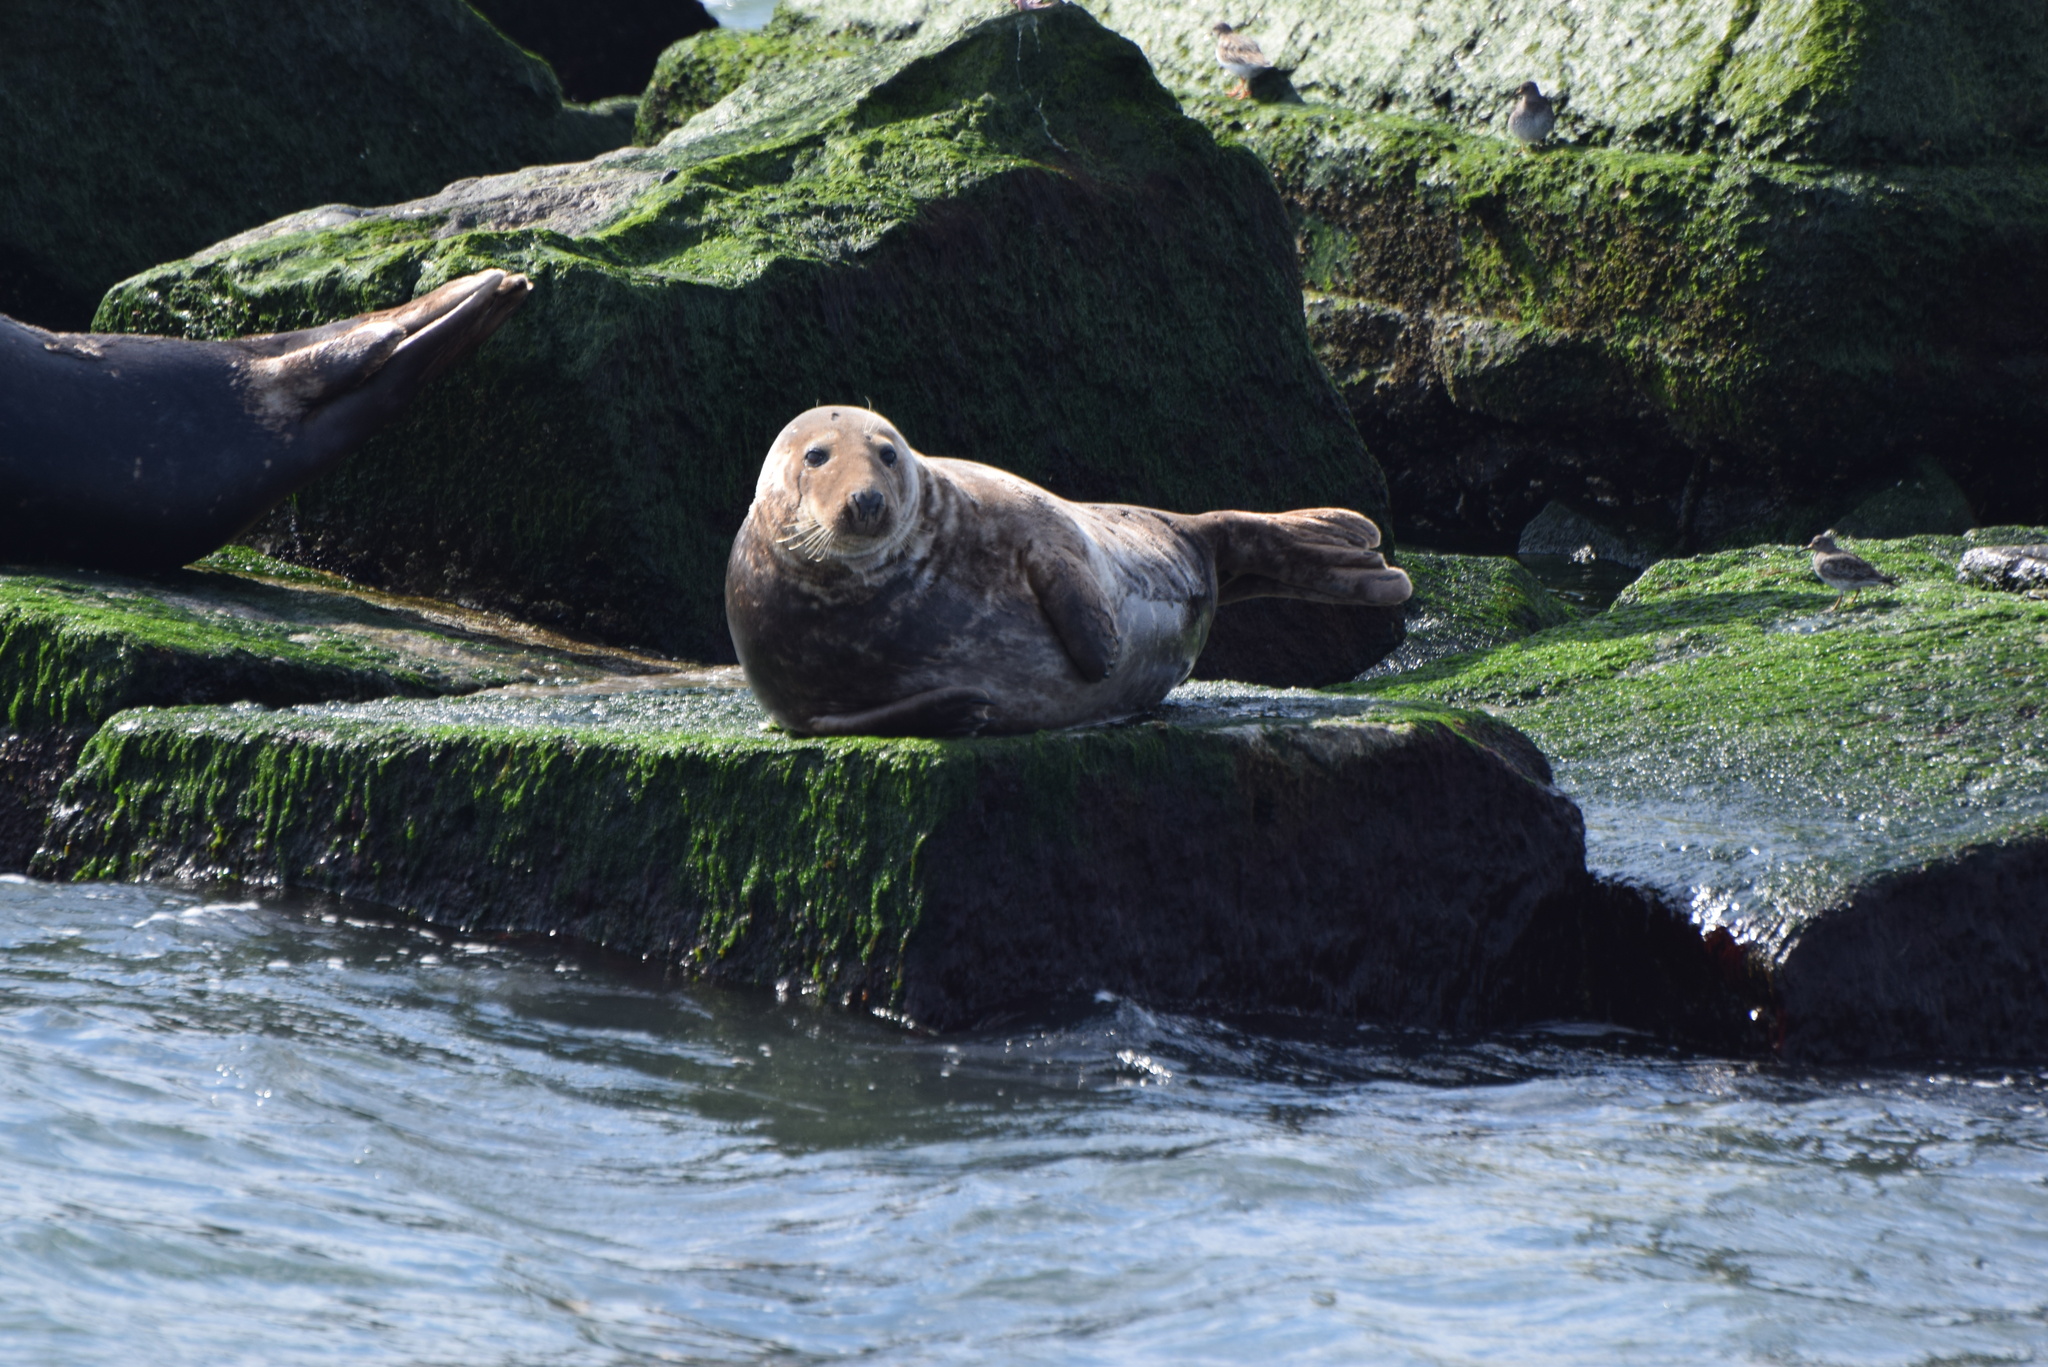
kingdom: Animalia
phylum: Chordata
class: Mammalia
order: Carnivora
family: Phocidae
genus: Halichoerus
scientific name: Halichoerus grypus
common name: Grey seal
